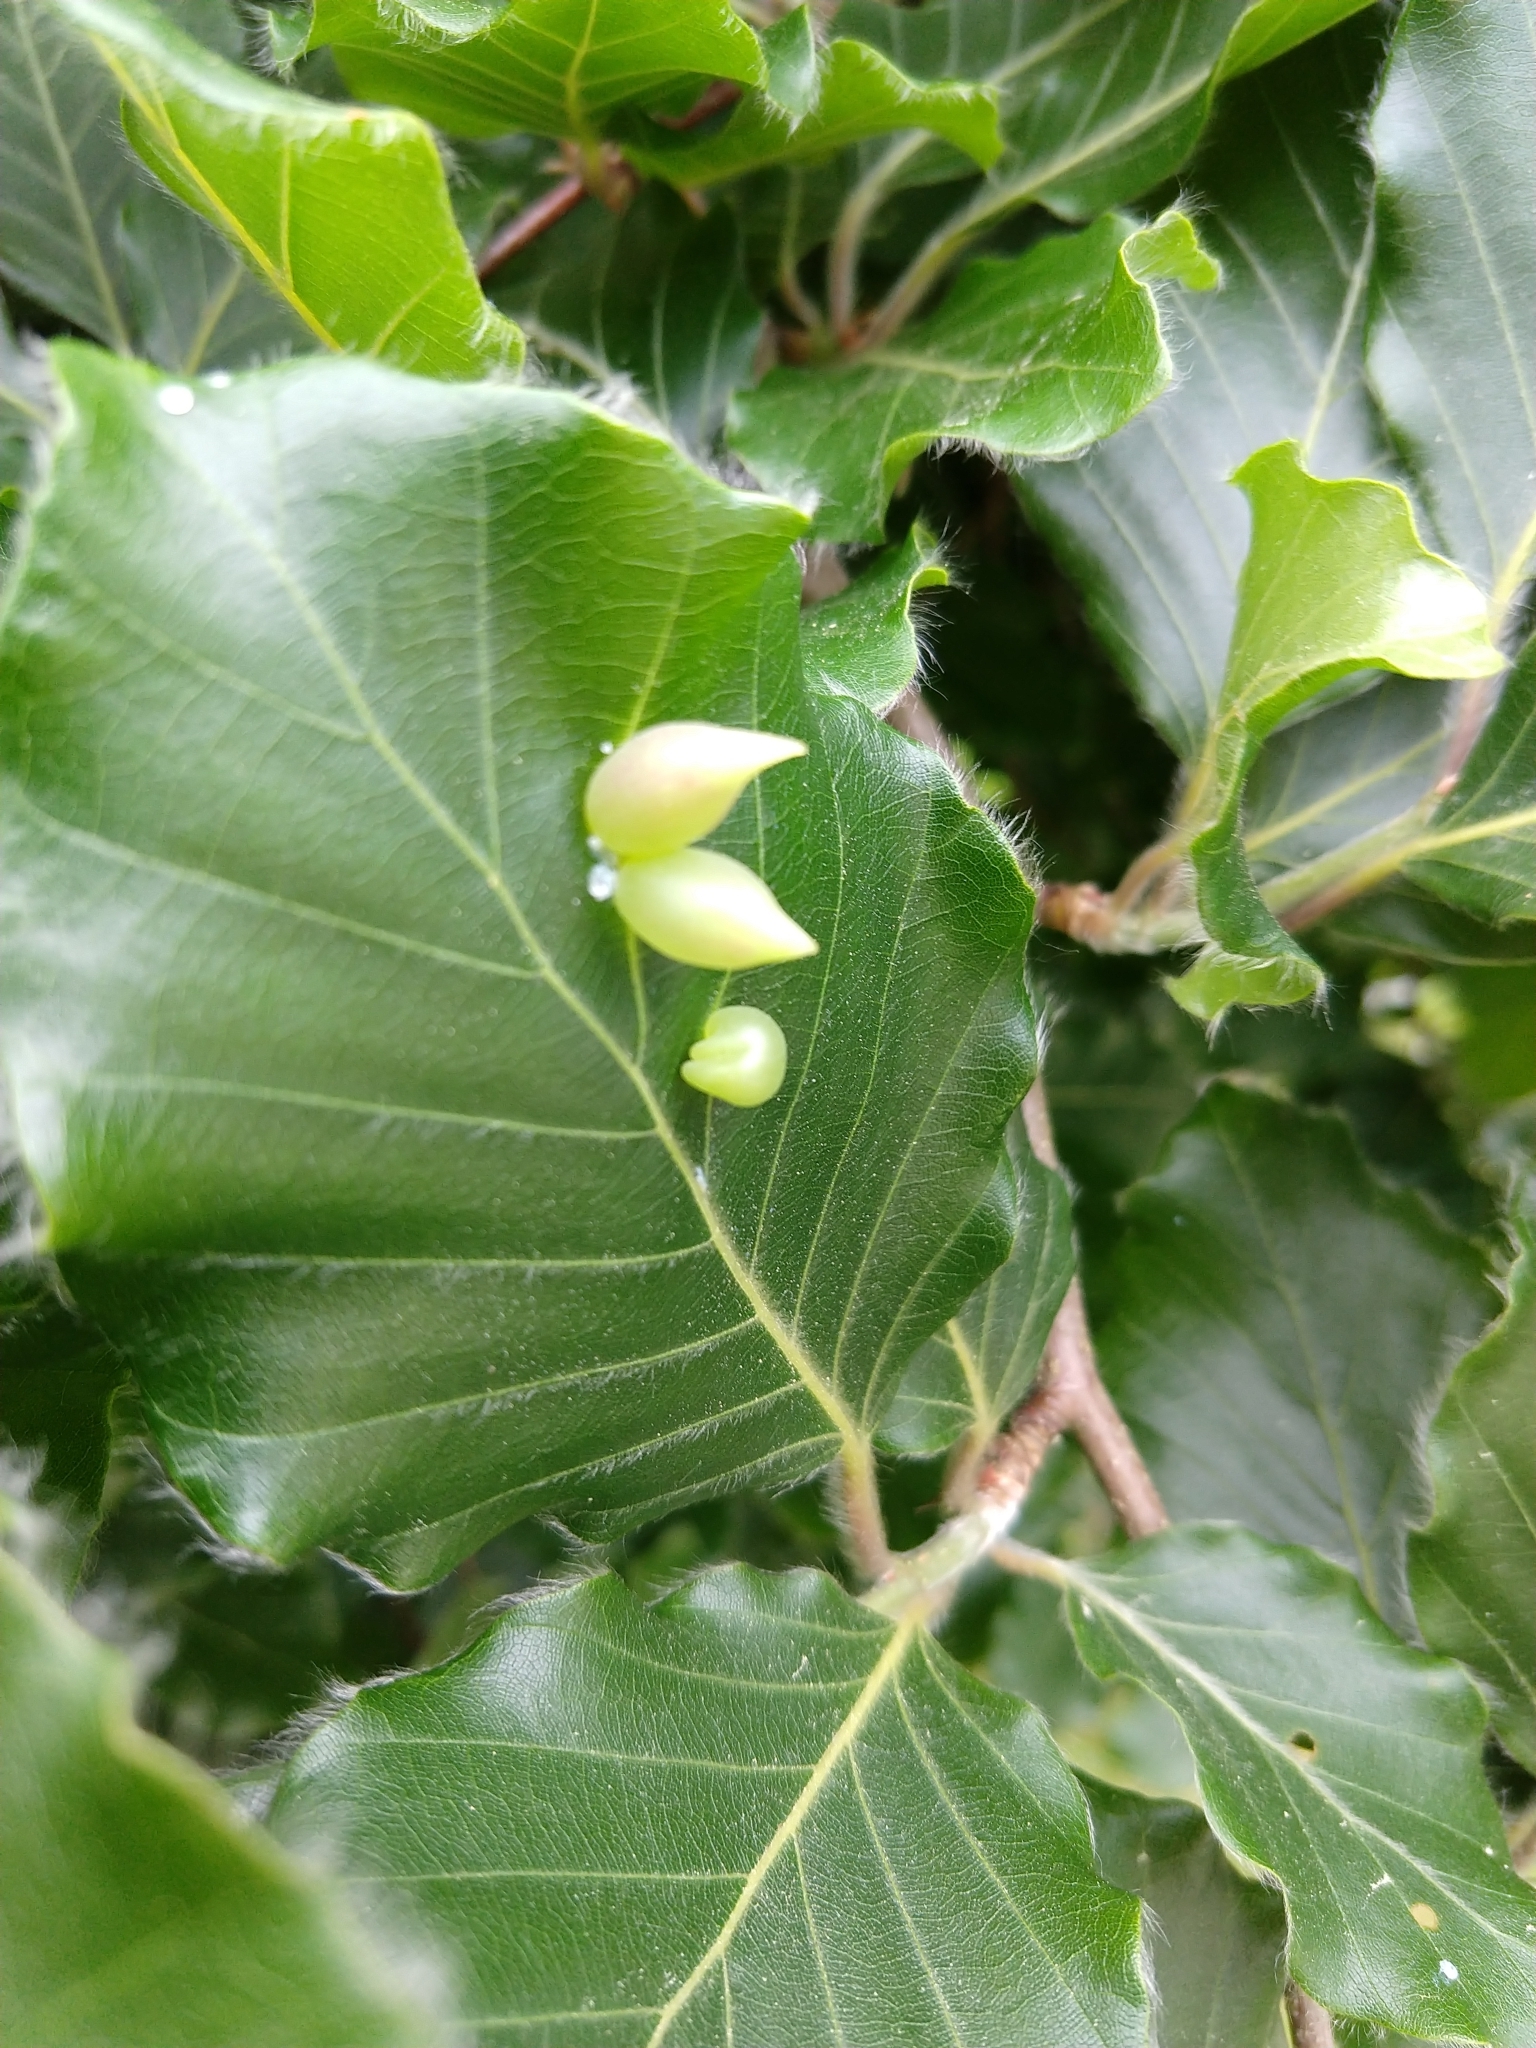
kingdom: Animalia
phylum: Arthropoda
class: Insecta
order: Diptera
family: Cecidomyiidae
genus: Mikiola
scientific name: Mikiola fagi
